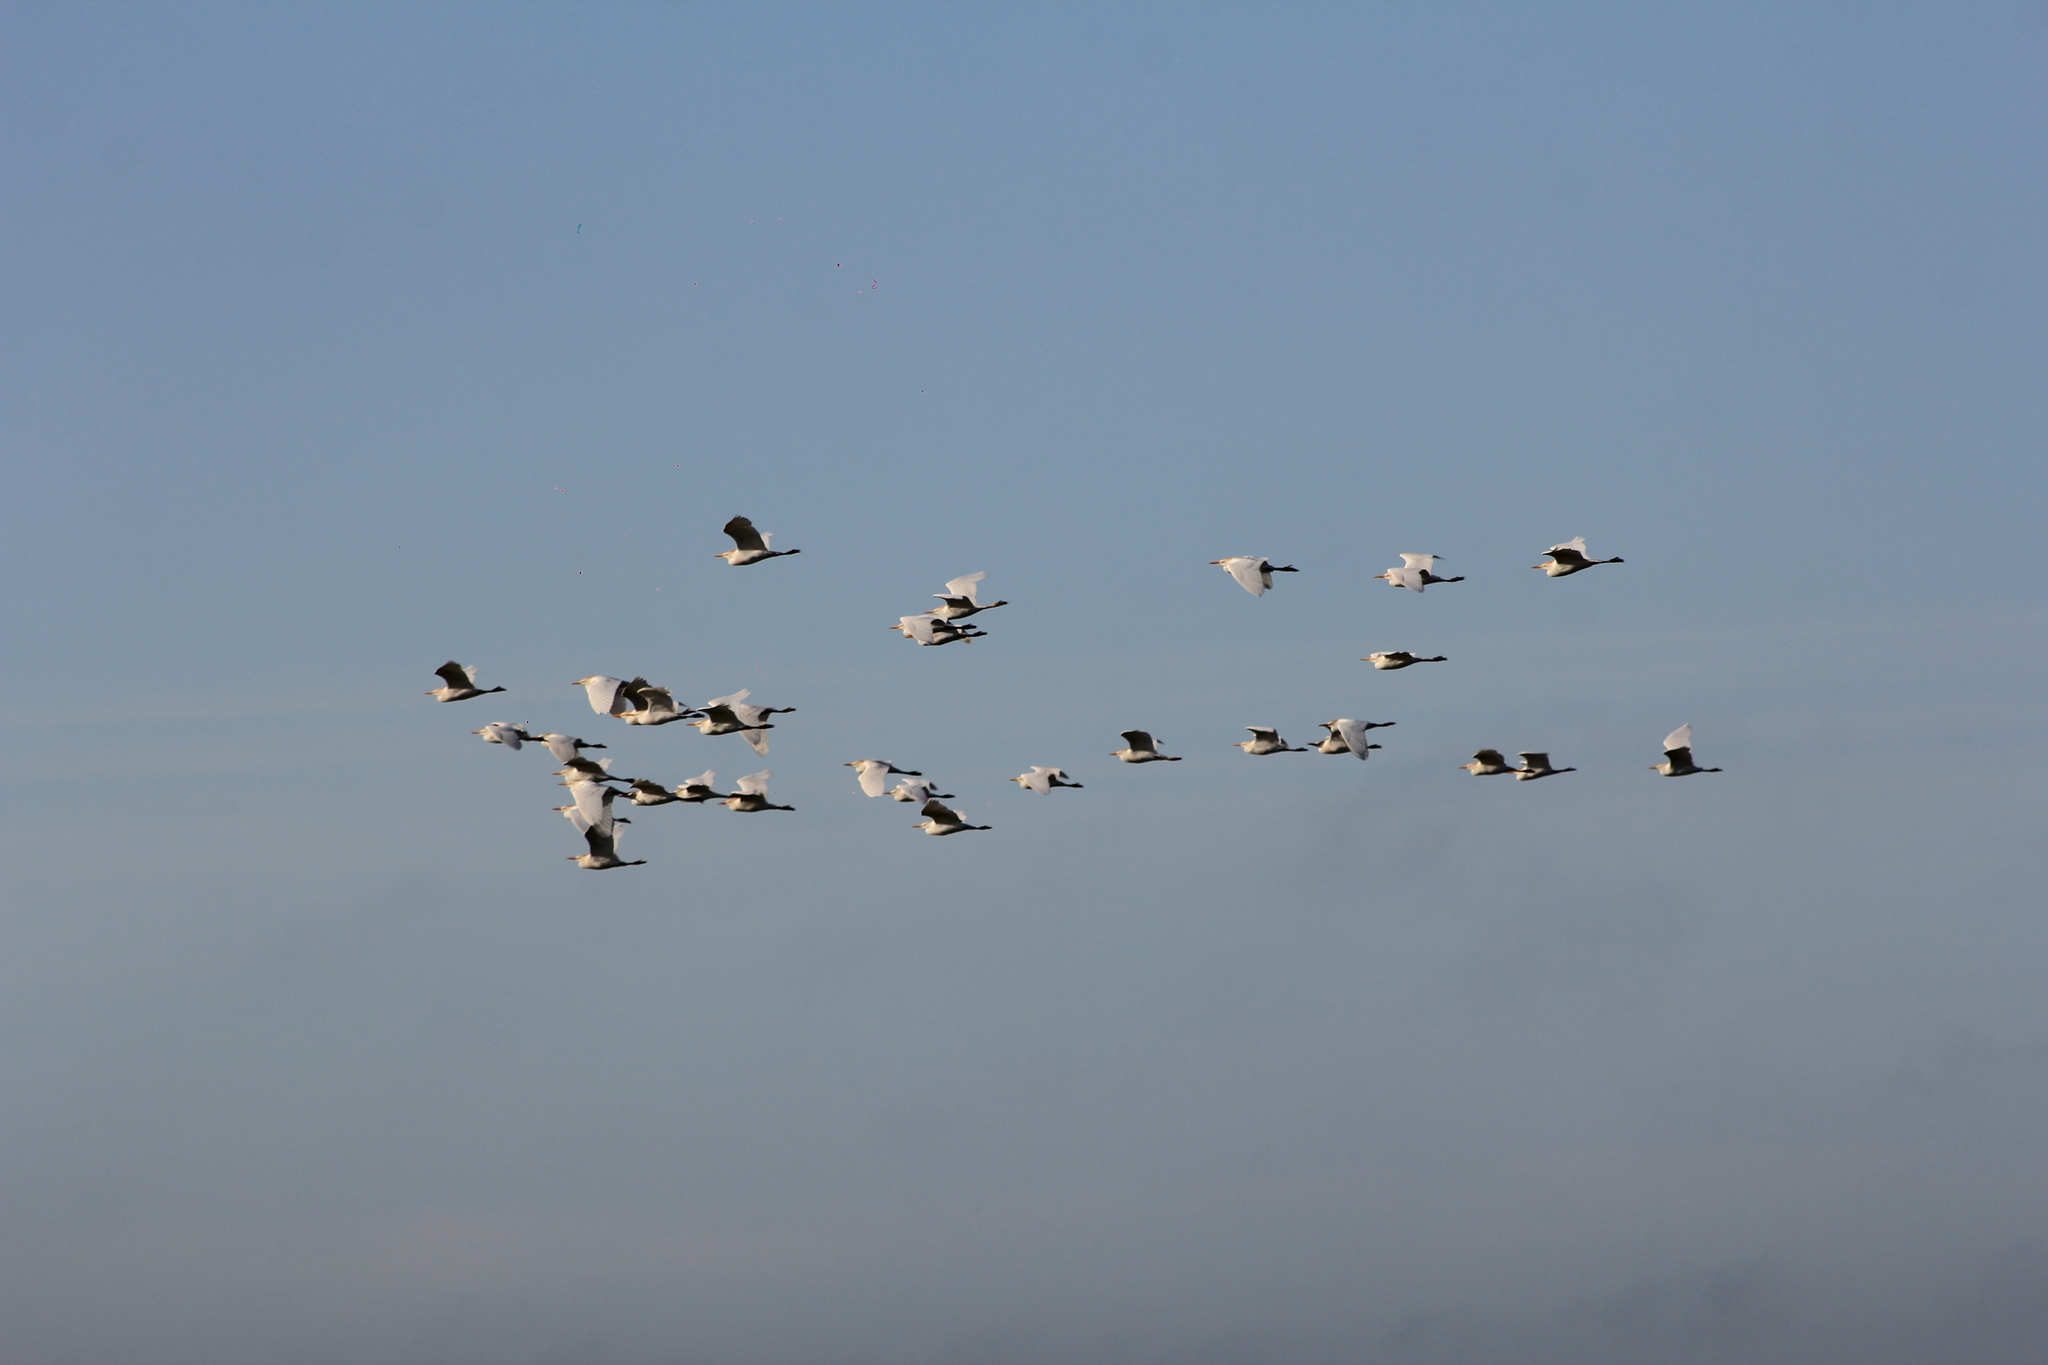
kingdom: Animalia
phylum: Chordata
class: Aves
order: Pelecaniformes
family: Ardeidae
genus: Bubulcus
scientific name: Bubulcus ibis
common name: Cattle egret
